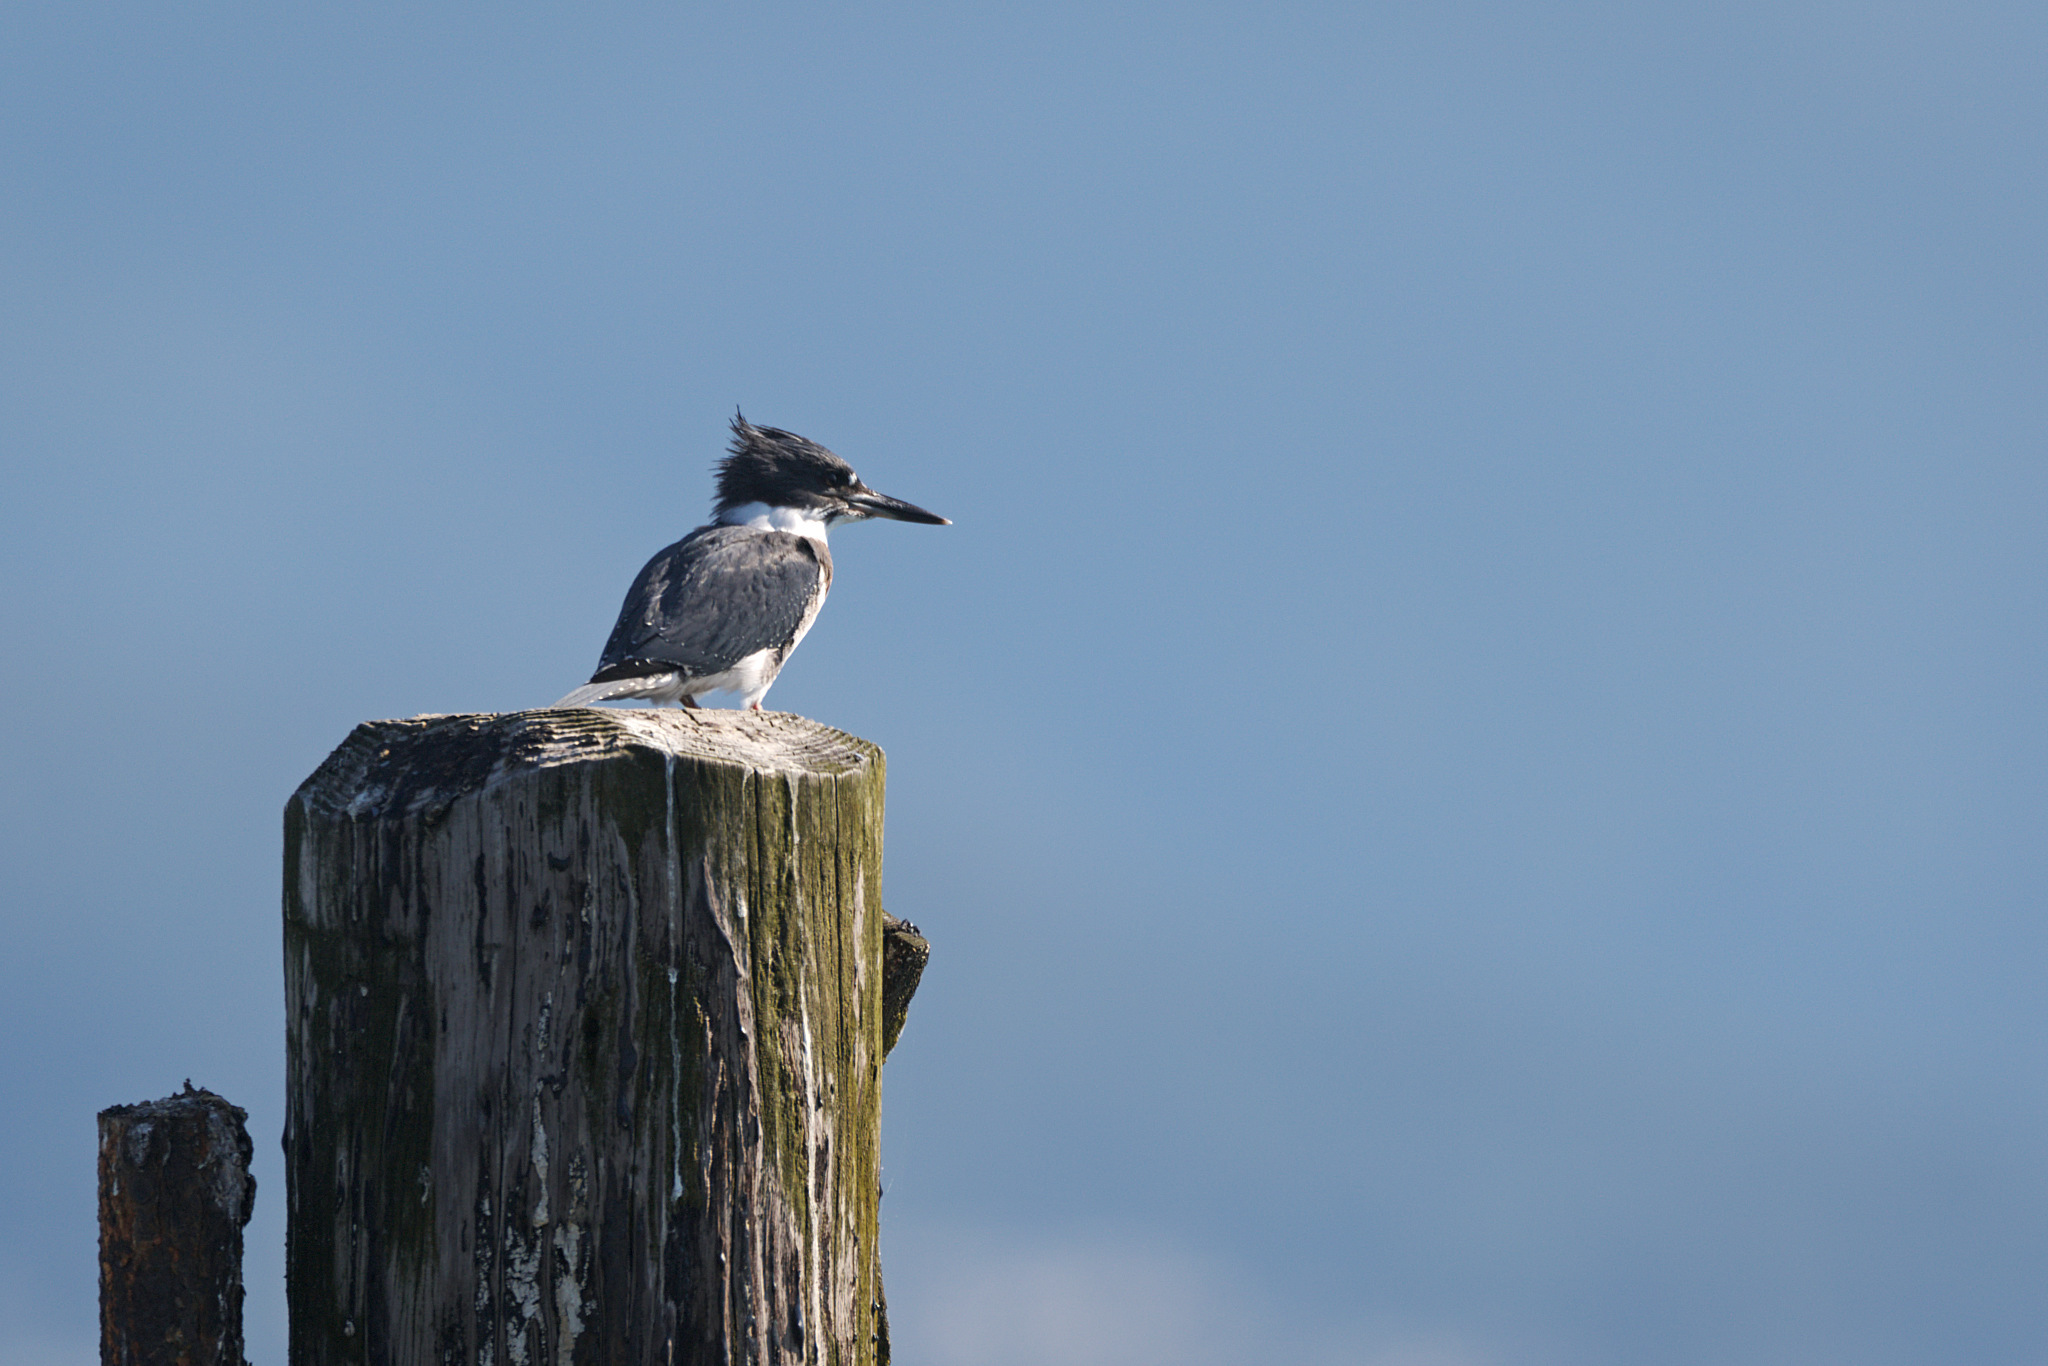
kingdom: Animalia
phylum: Chordata
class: Aves
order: Coraciiformes
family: Alcedinidae
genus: Megaceryle
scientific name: Megaceryle alcyon
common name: Belted kingfisher
